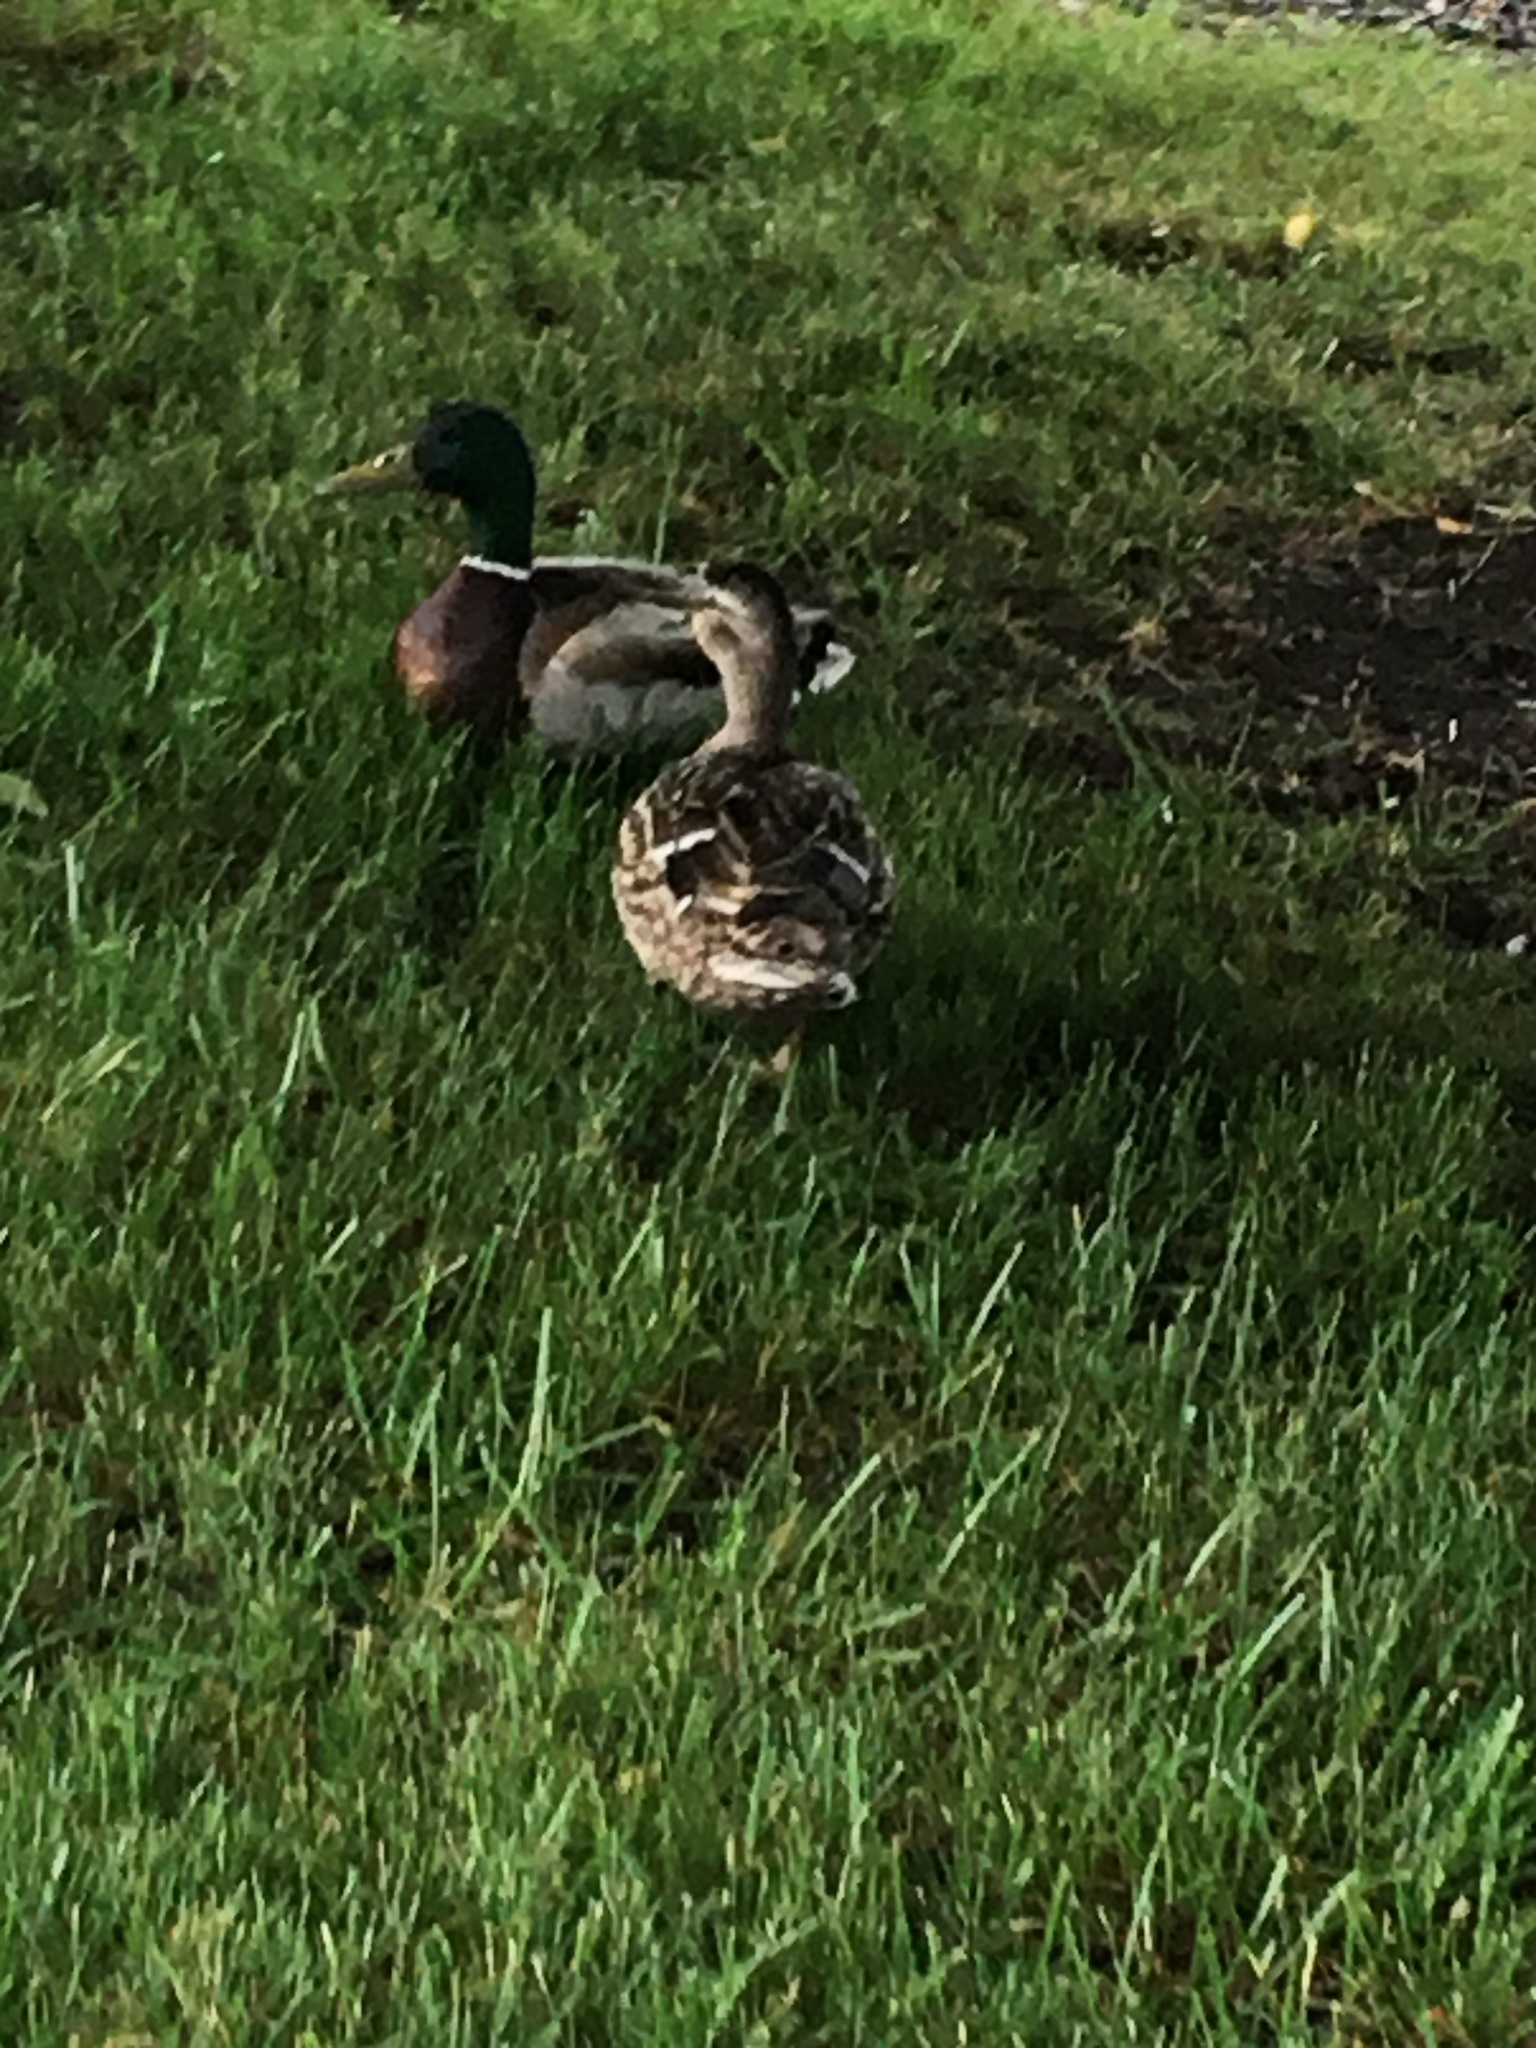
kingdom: Animalia
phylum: Chordata
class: Aves
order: Anseriformes
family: Anatidae
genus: Anas
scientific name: Anas platyrhynchos
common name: Mallard
